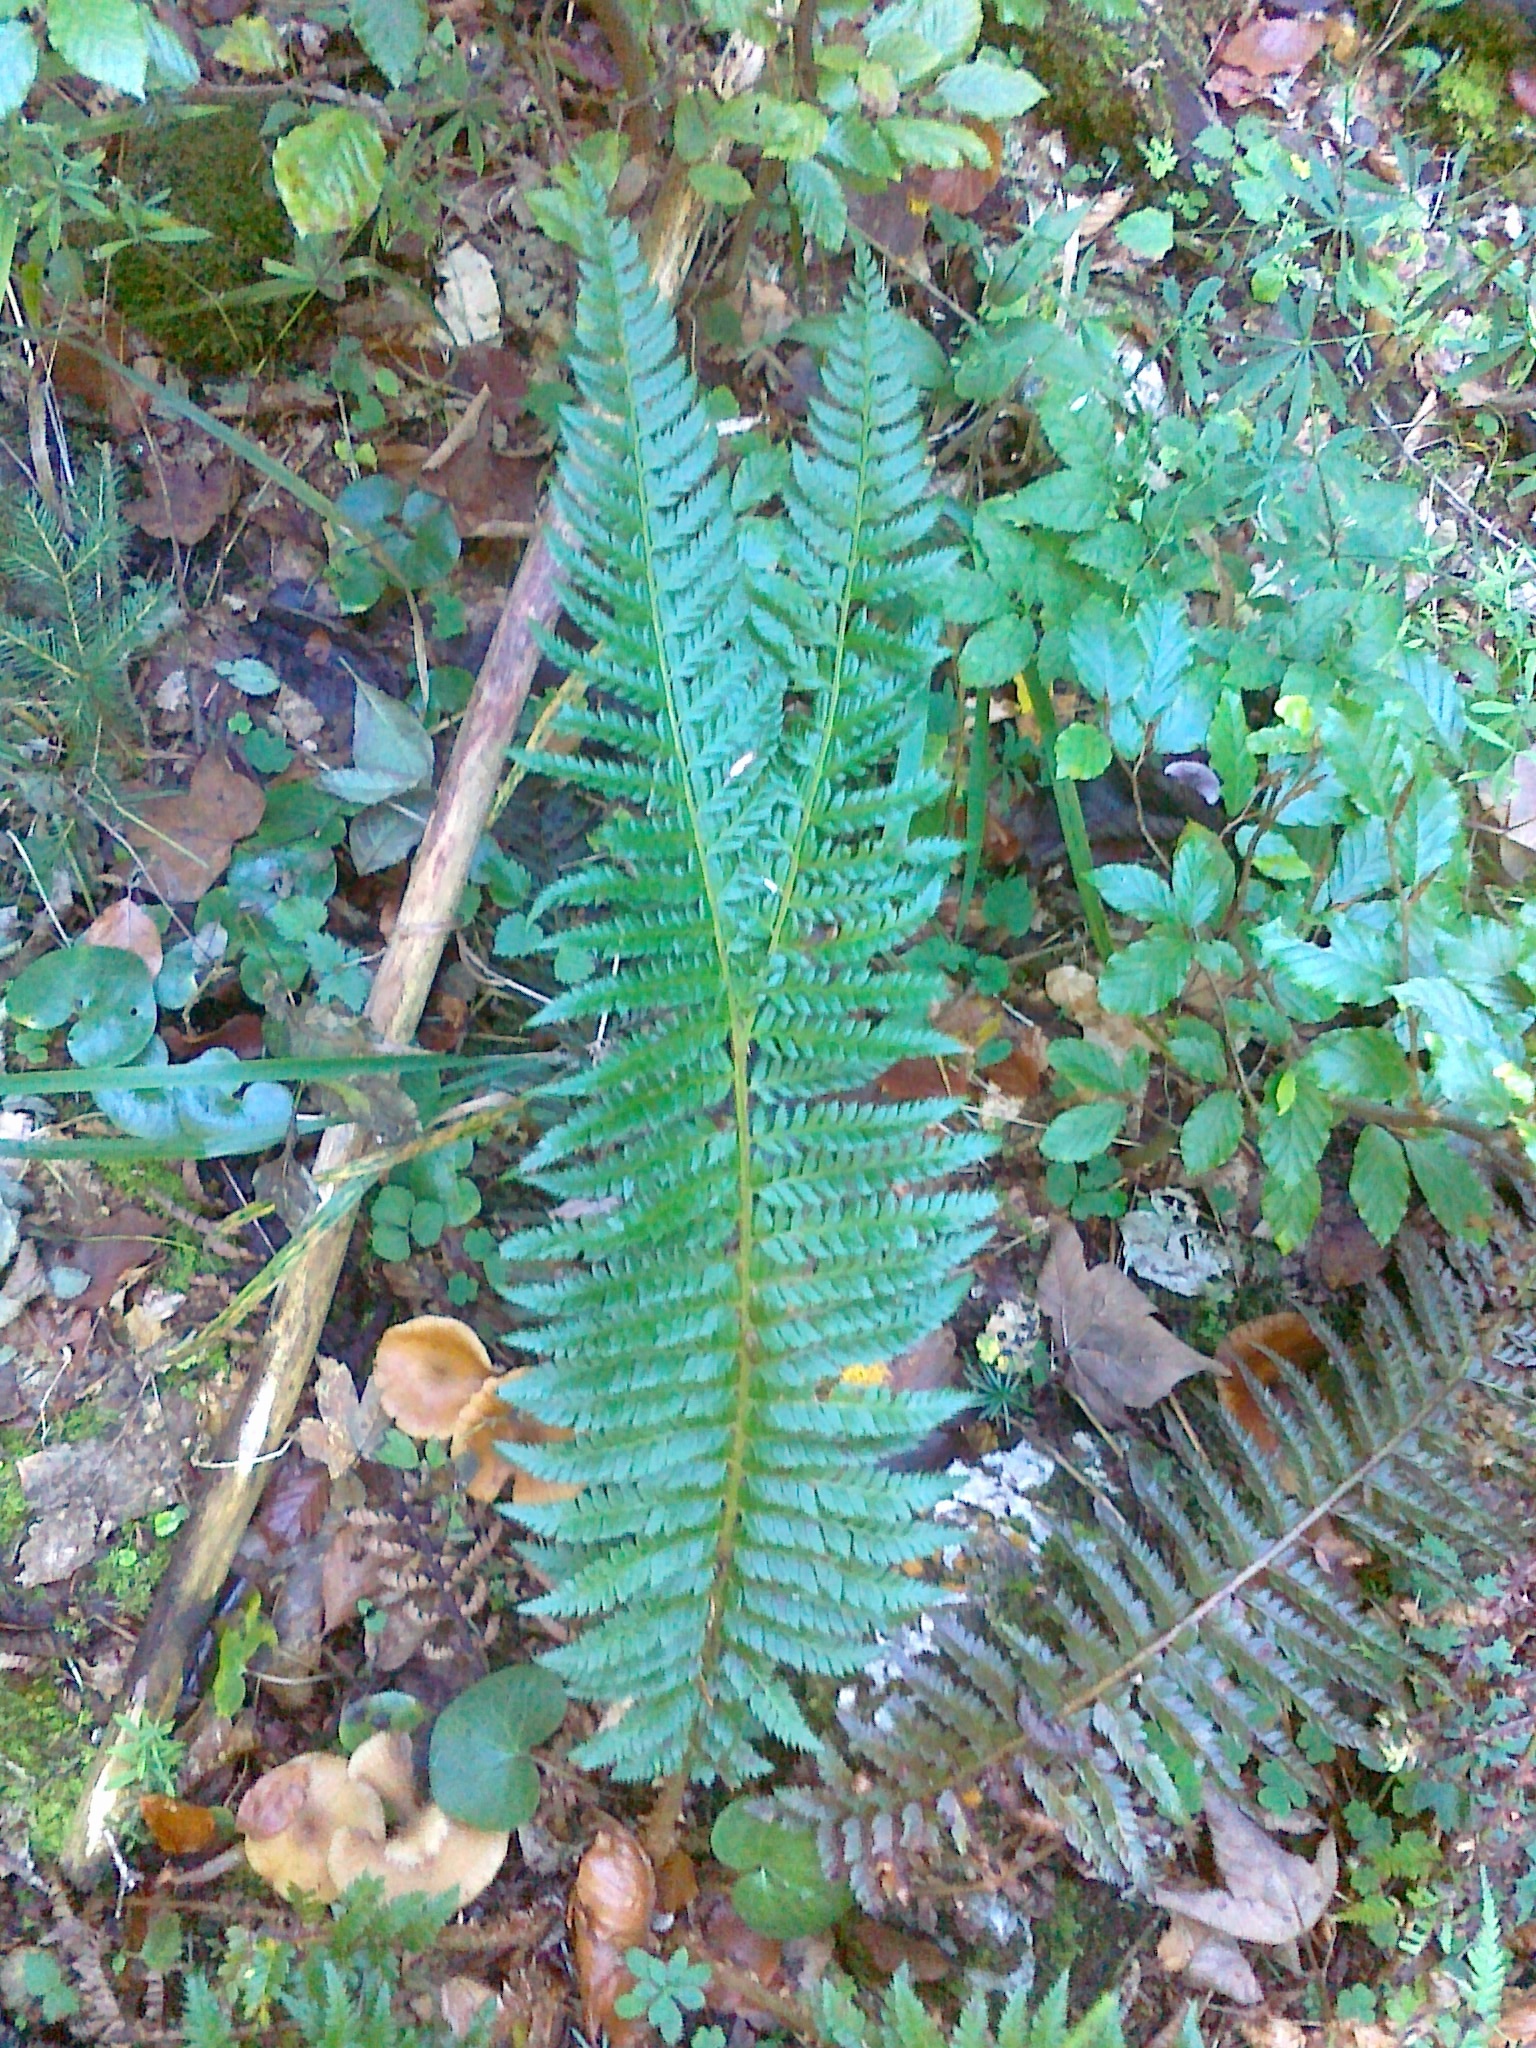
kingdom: Plantae
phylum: Tracheophyta
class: Polypodiopsida
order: Polypodiales
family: Dryopteridaceae
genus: Polystichum
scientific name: Polystichum aculeatum
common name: Hard shield-fern
